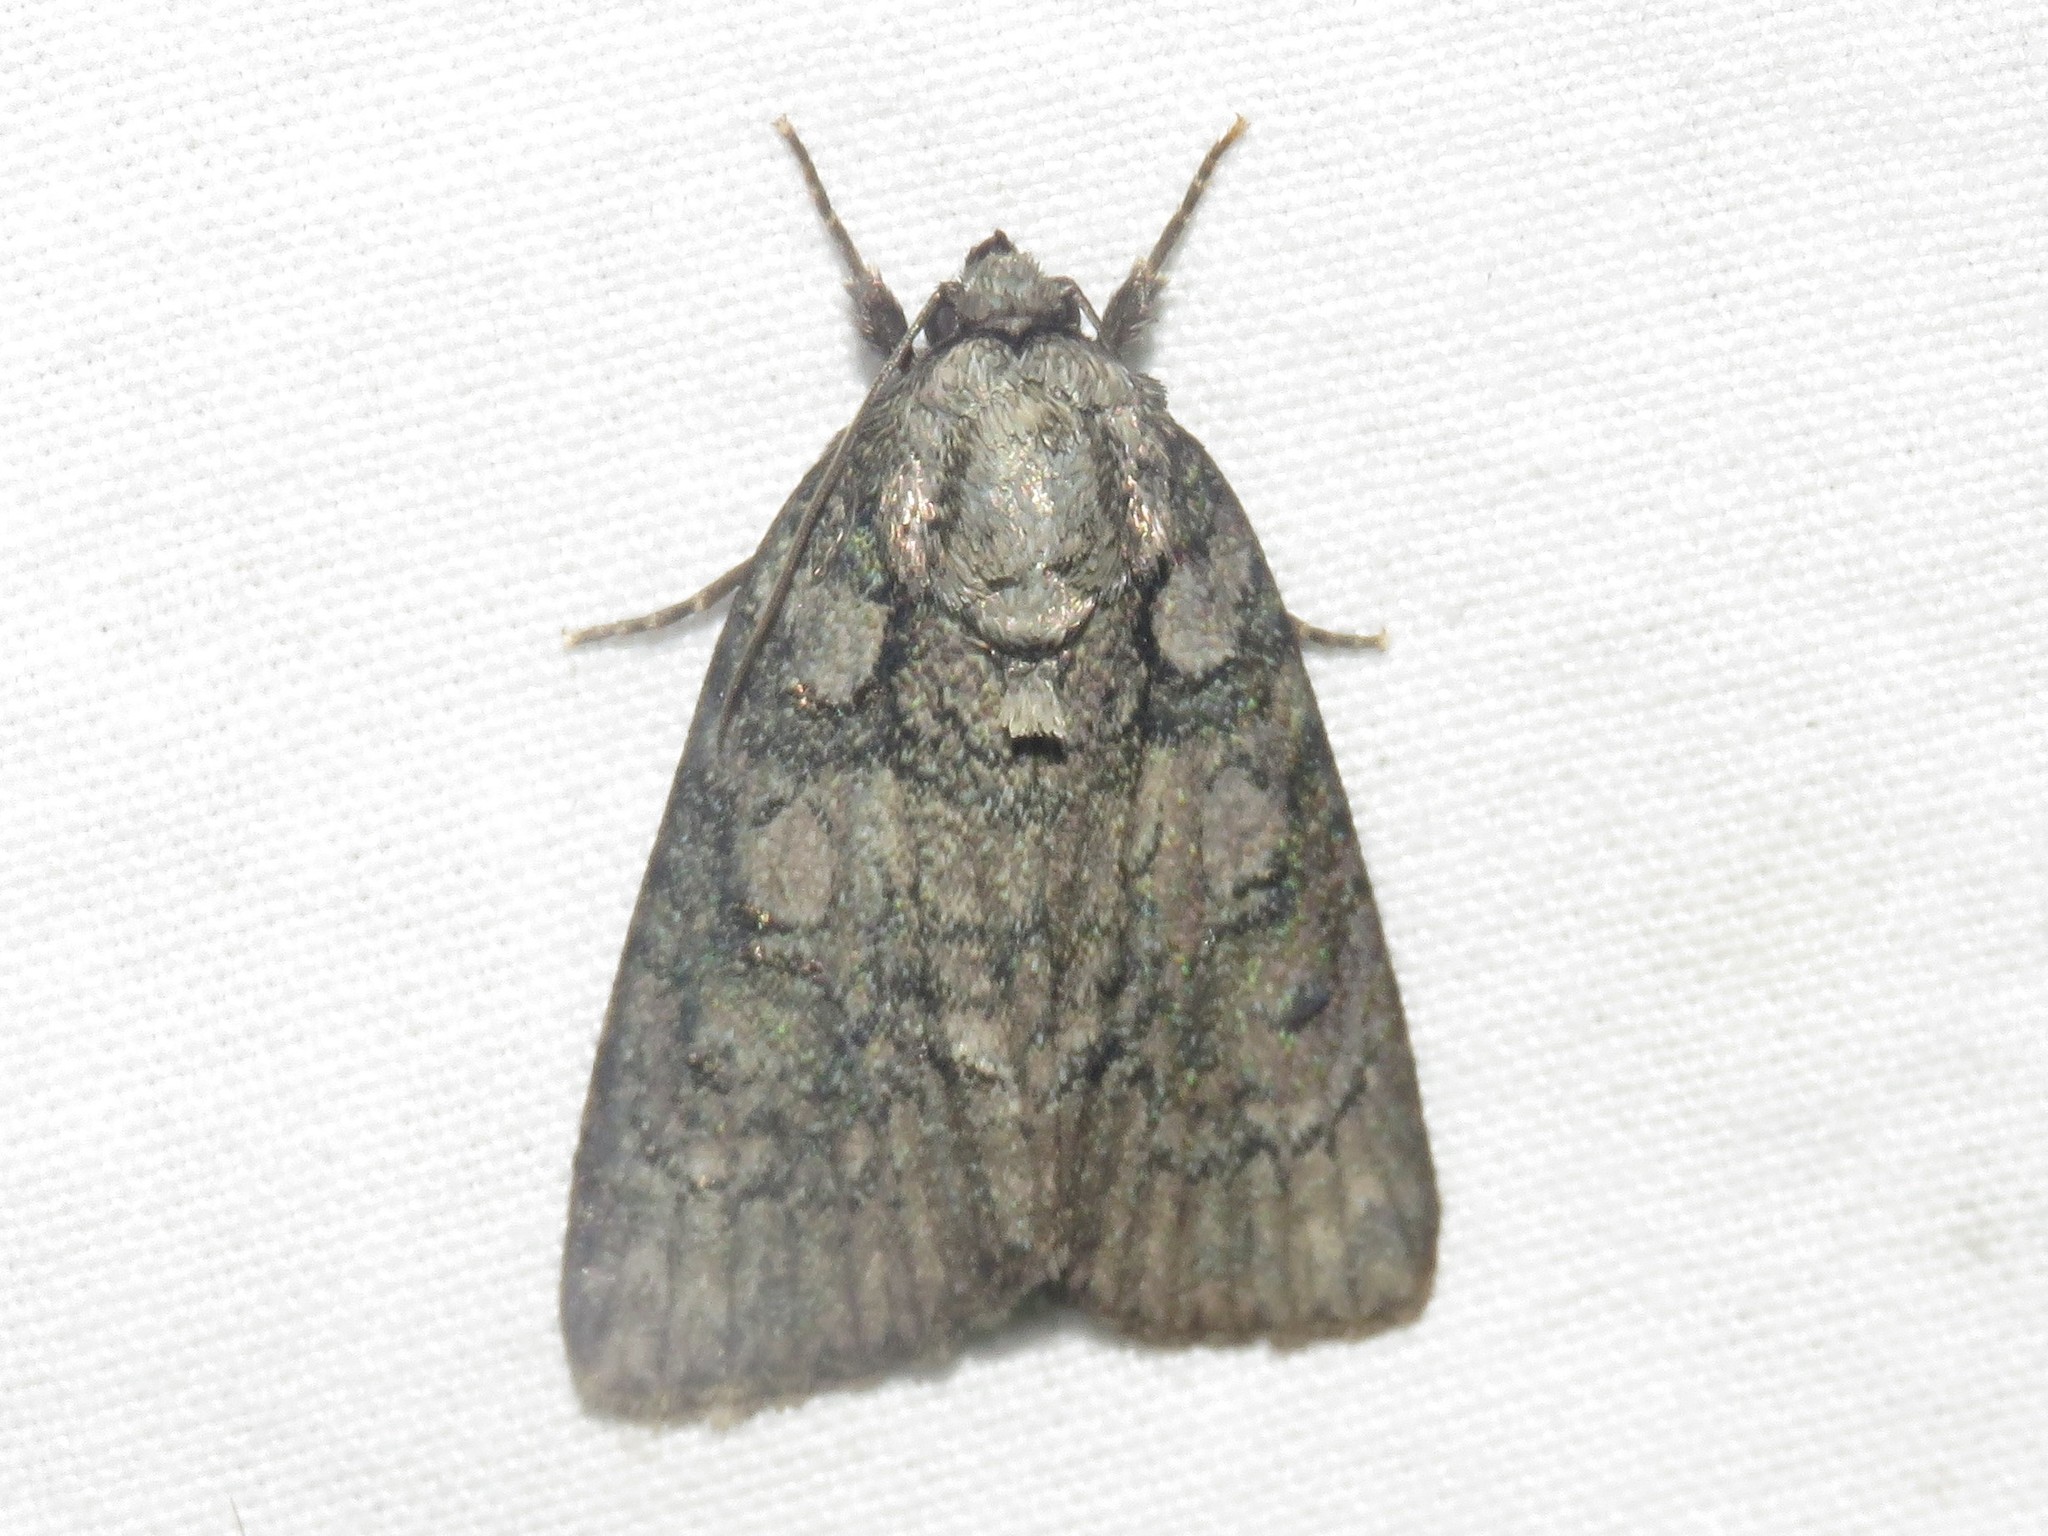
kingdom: Animalia
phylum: Arthropoda
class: Insecta
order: Lepidoptera
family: Noctuidae
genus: Acronicta
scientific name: Acronicta retardata
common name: Maple dagger
